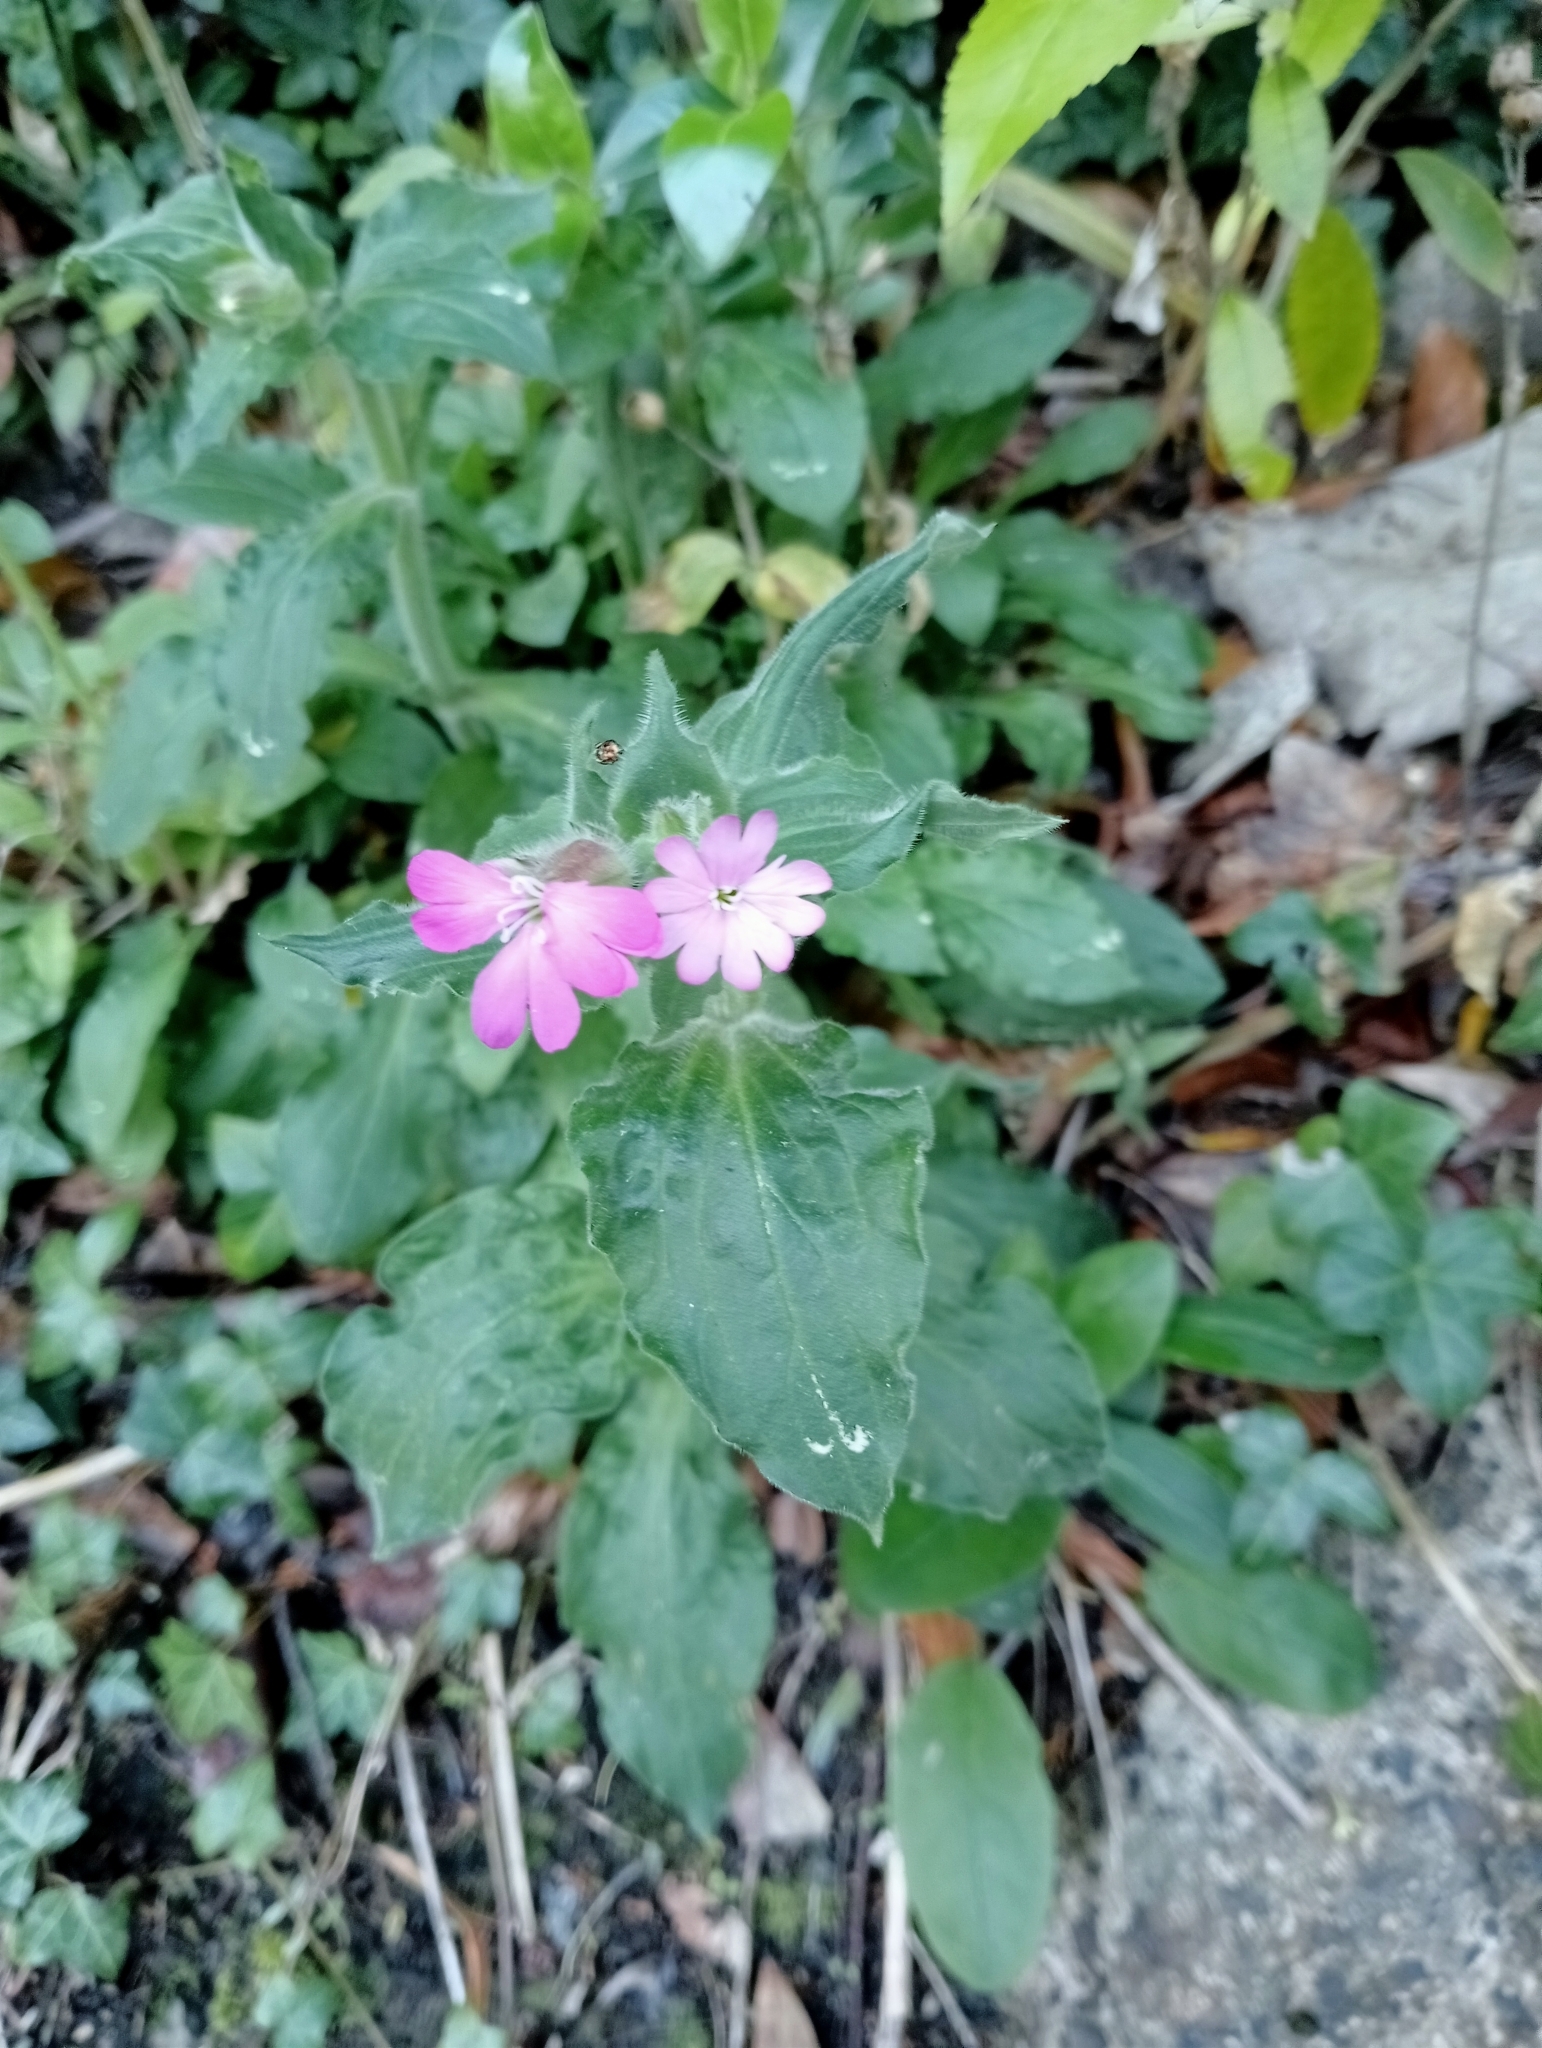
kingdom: Plantae
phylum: Tracheophyta
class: Magnoliopsida
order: Caryophyllales
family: Caryophyllaceae
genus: Silene
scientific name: Silene dioica
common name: Red campion
